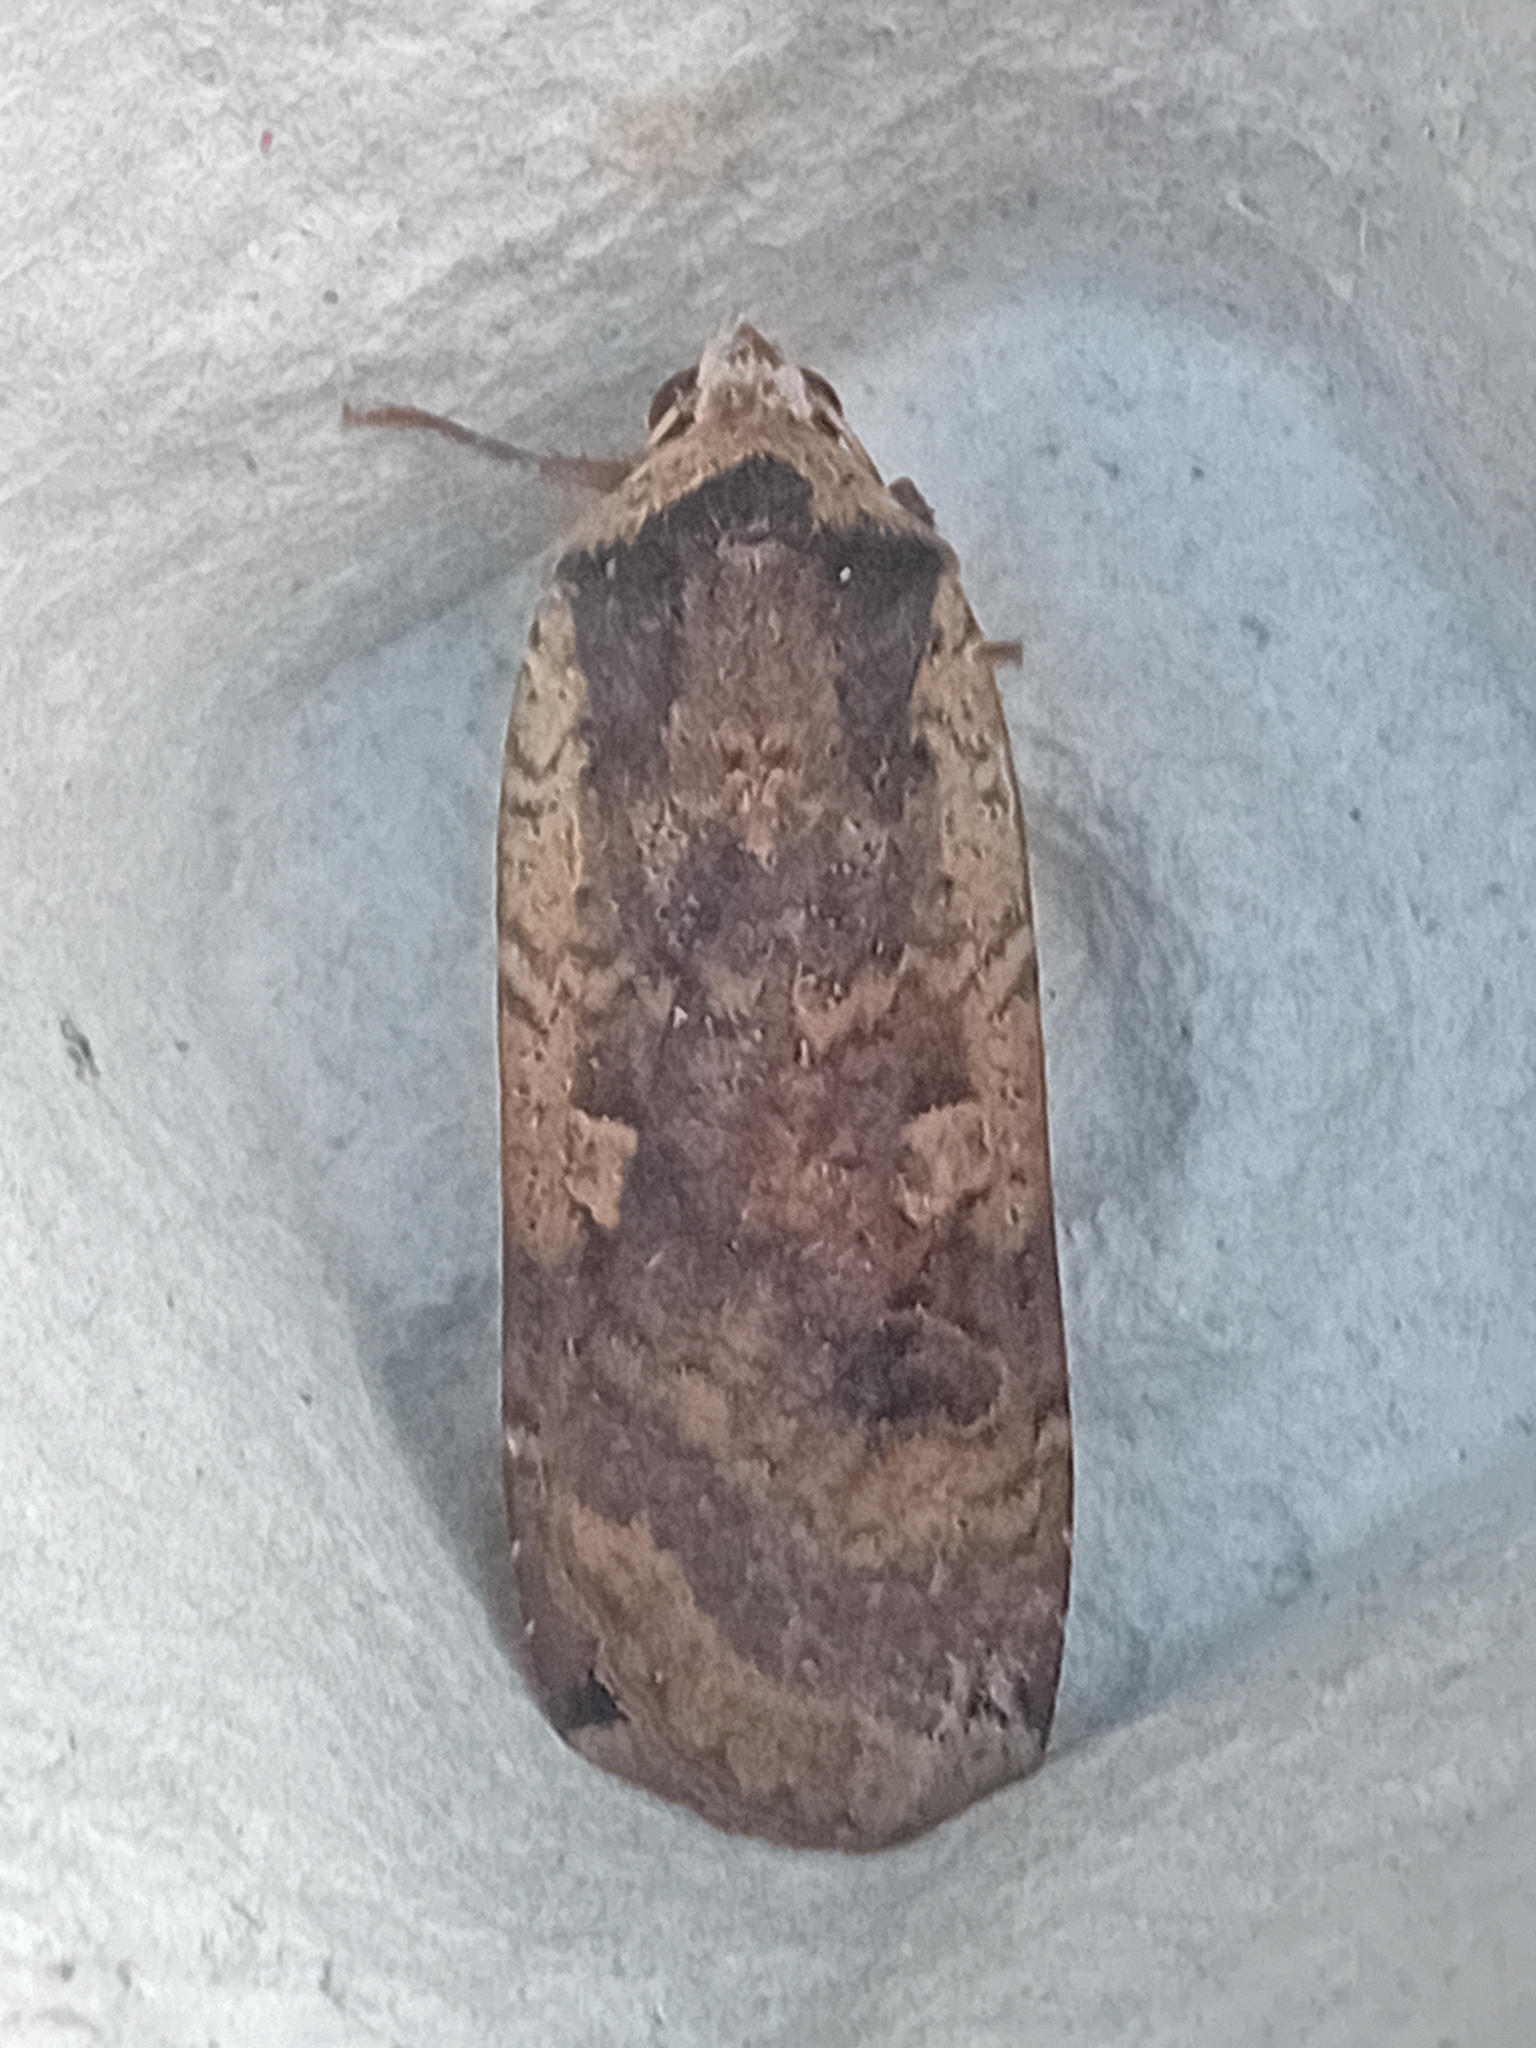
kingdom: Animalia
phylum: Arthropoda
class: Insecta
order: Lepidoptera
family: Noctuidae
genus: Noctua
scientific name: Noctua pronuba
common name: Large yellow underwing
